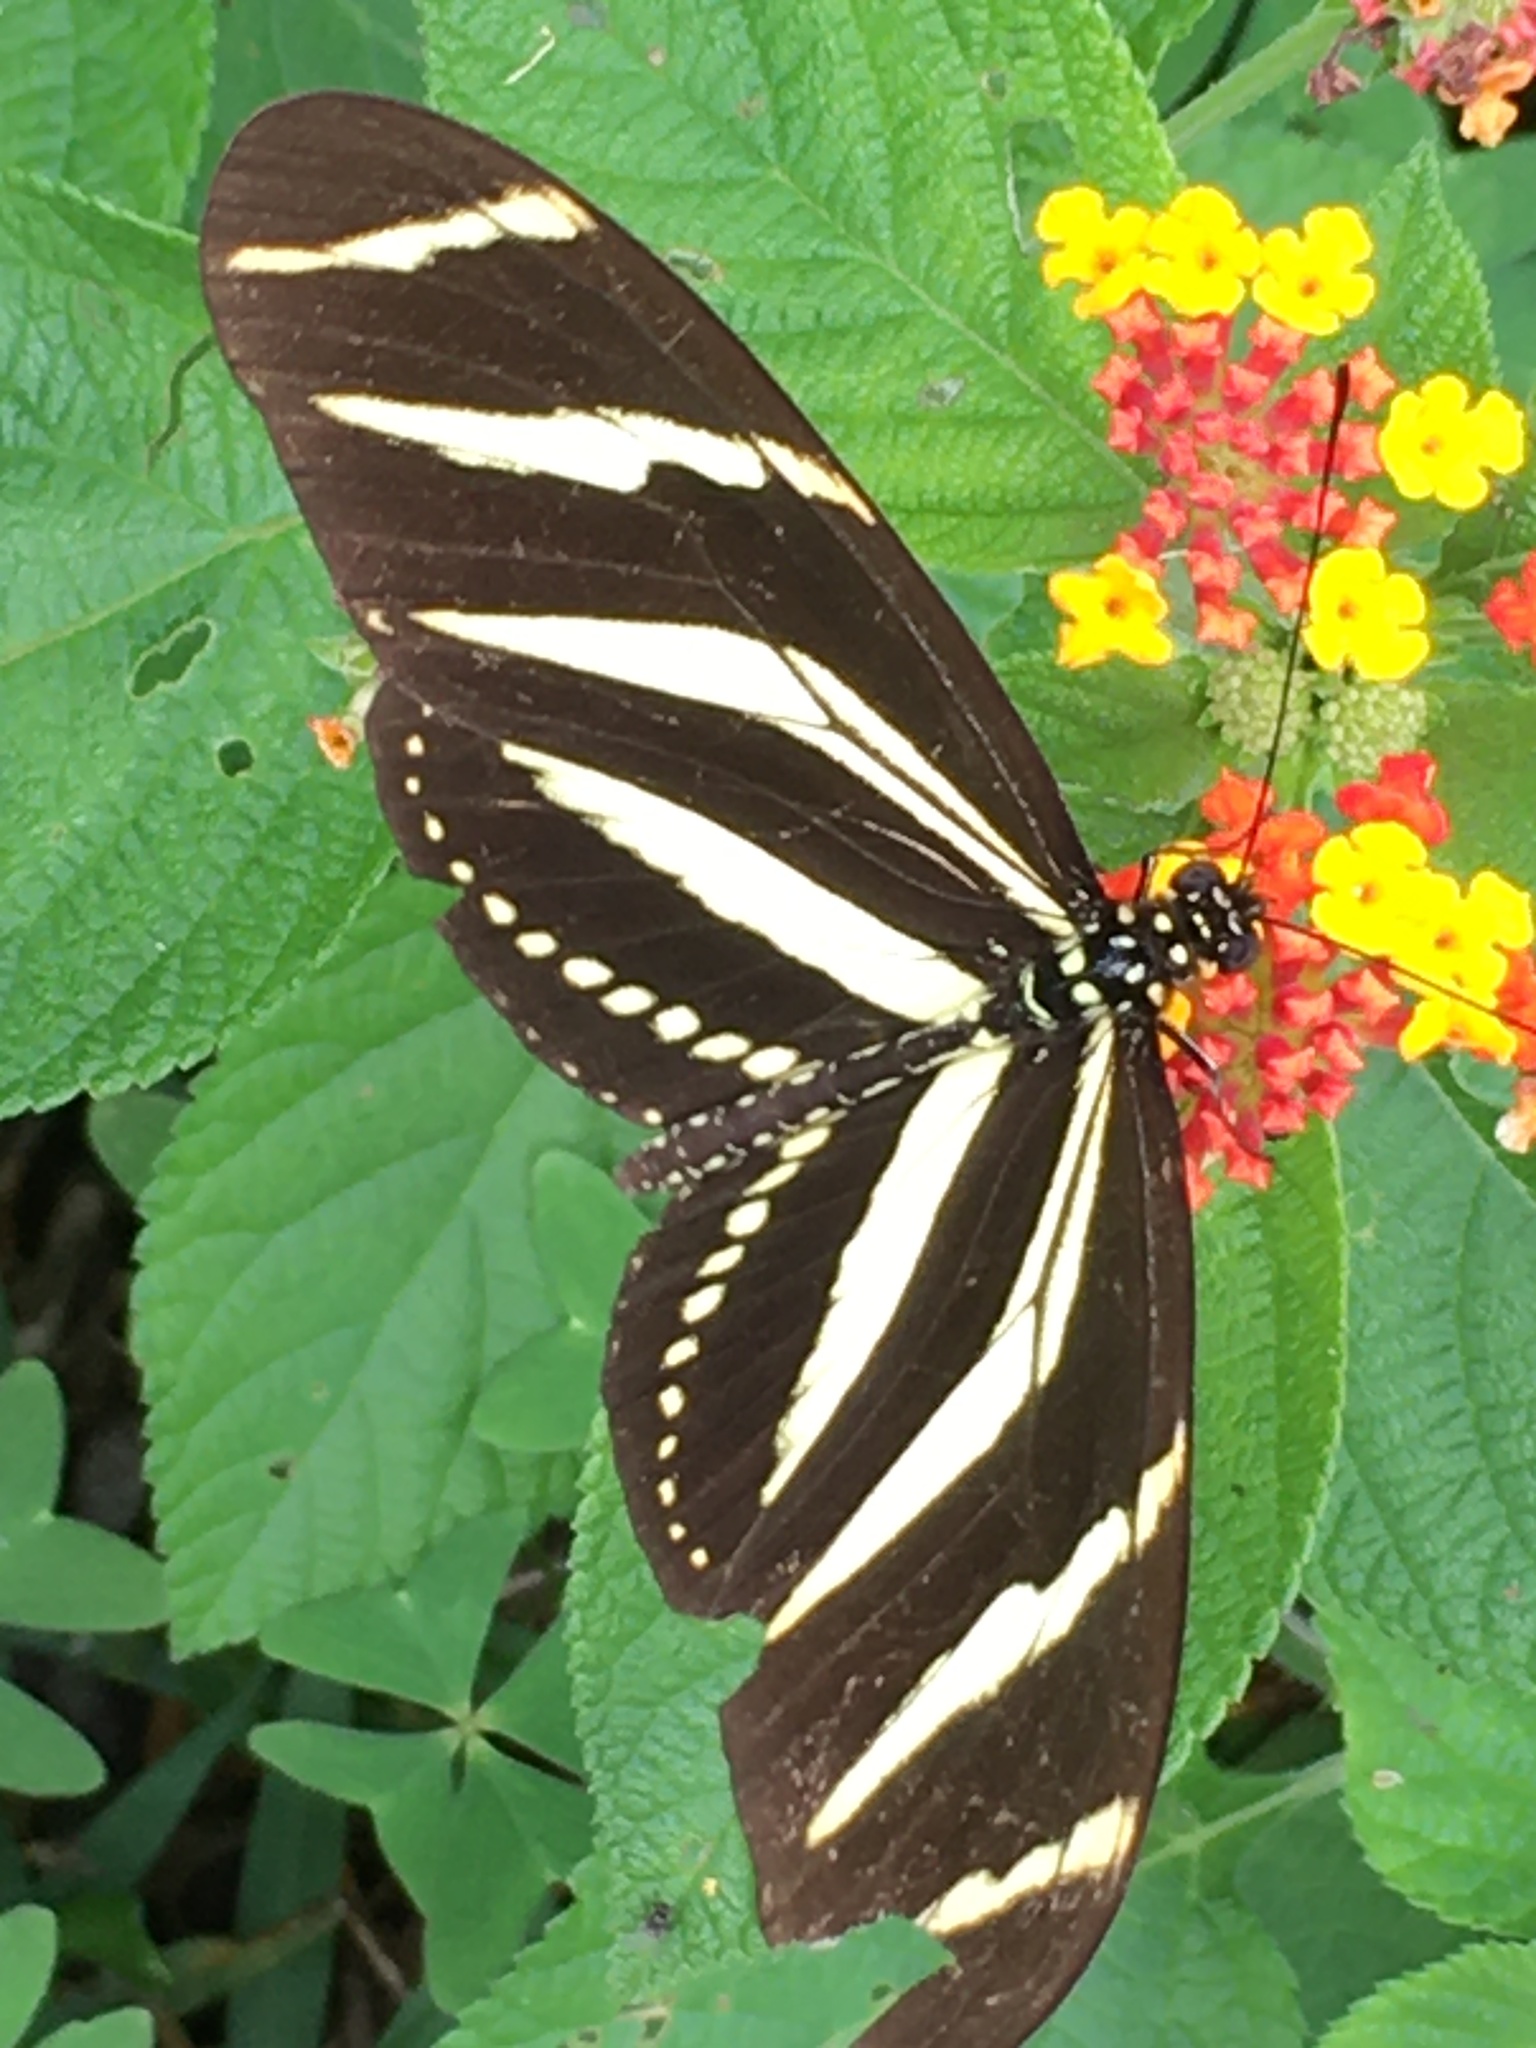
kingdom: Animalia
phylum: Arthropoda
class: Insecta
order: Lepidoptera
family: Nymphalidae
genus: Heliconius
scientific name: Heliconius charithonia
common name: Zebra long wing
